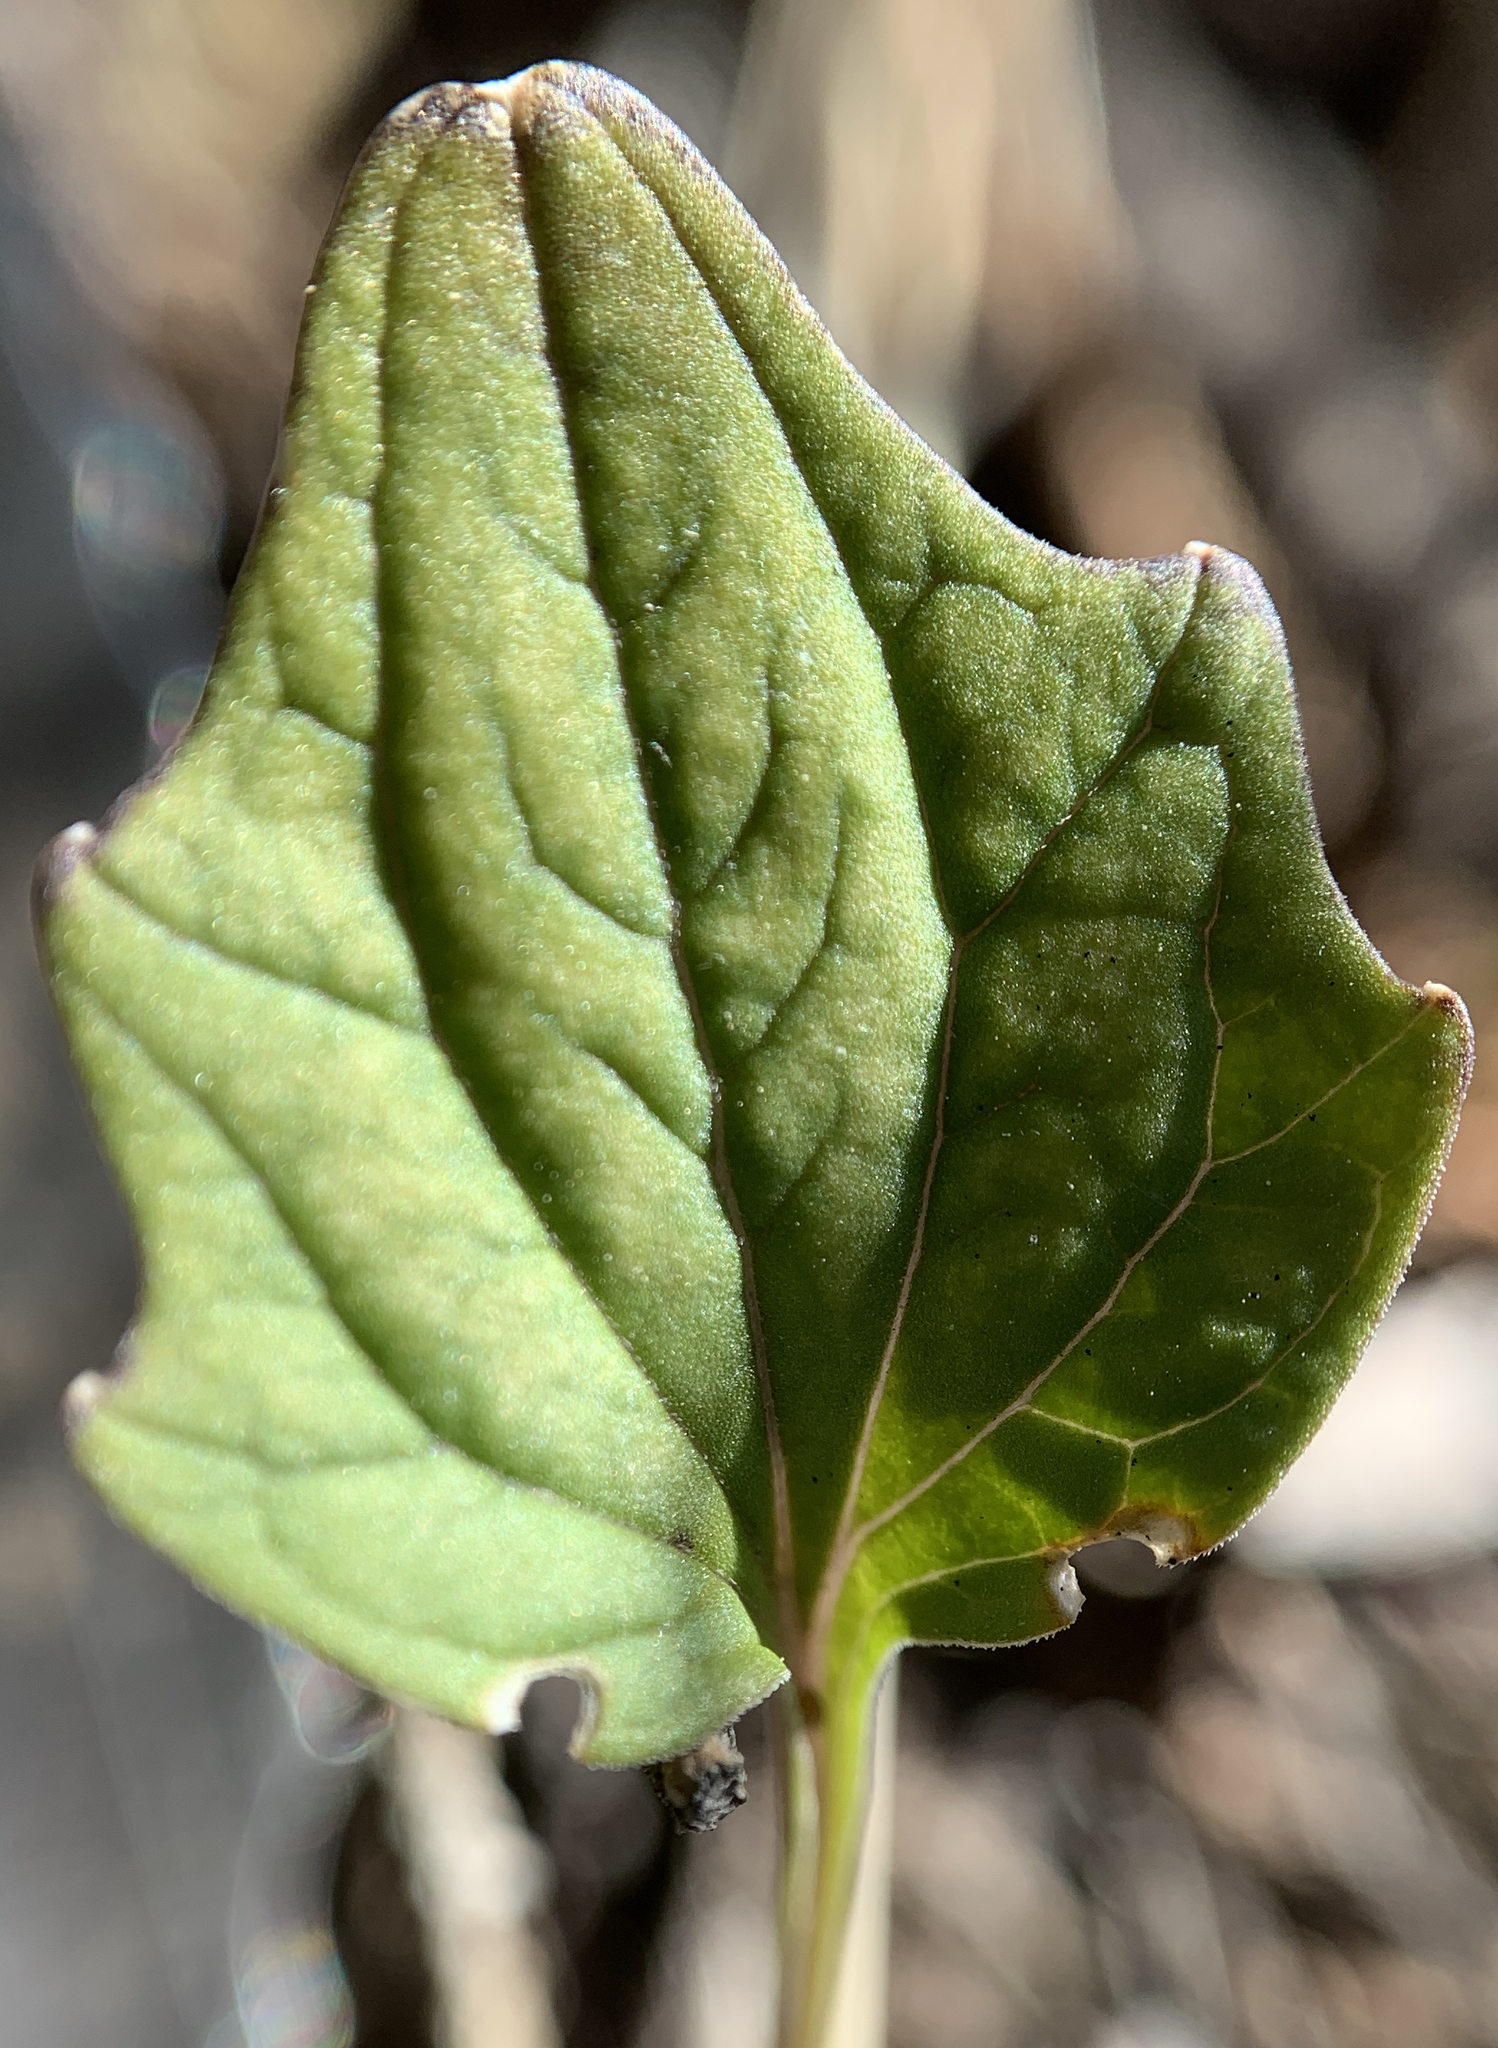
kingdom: Plantae
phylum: Tracheophyta
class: Magnoliopsida
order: Malpighiales
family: Violaceae
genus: Viola
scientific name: Viola purpurea
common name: Pine violet
